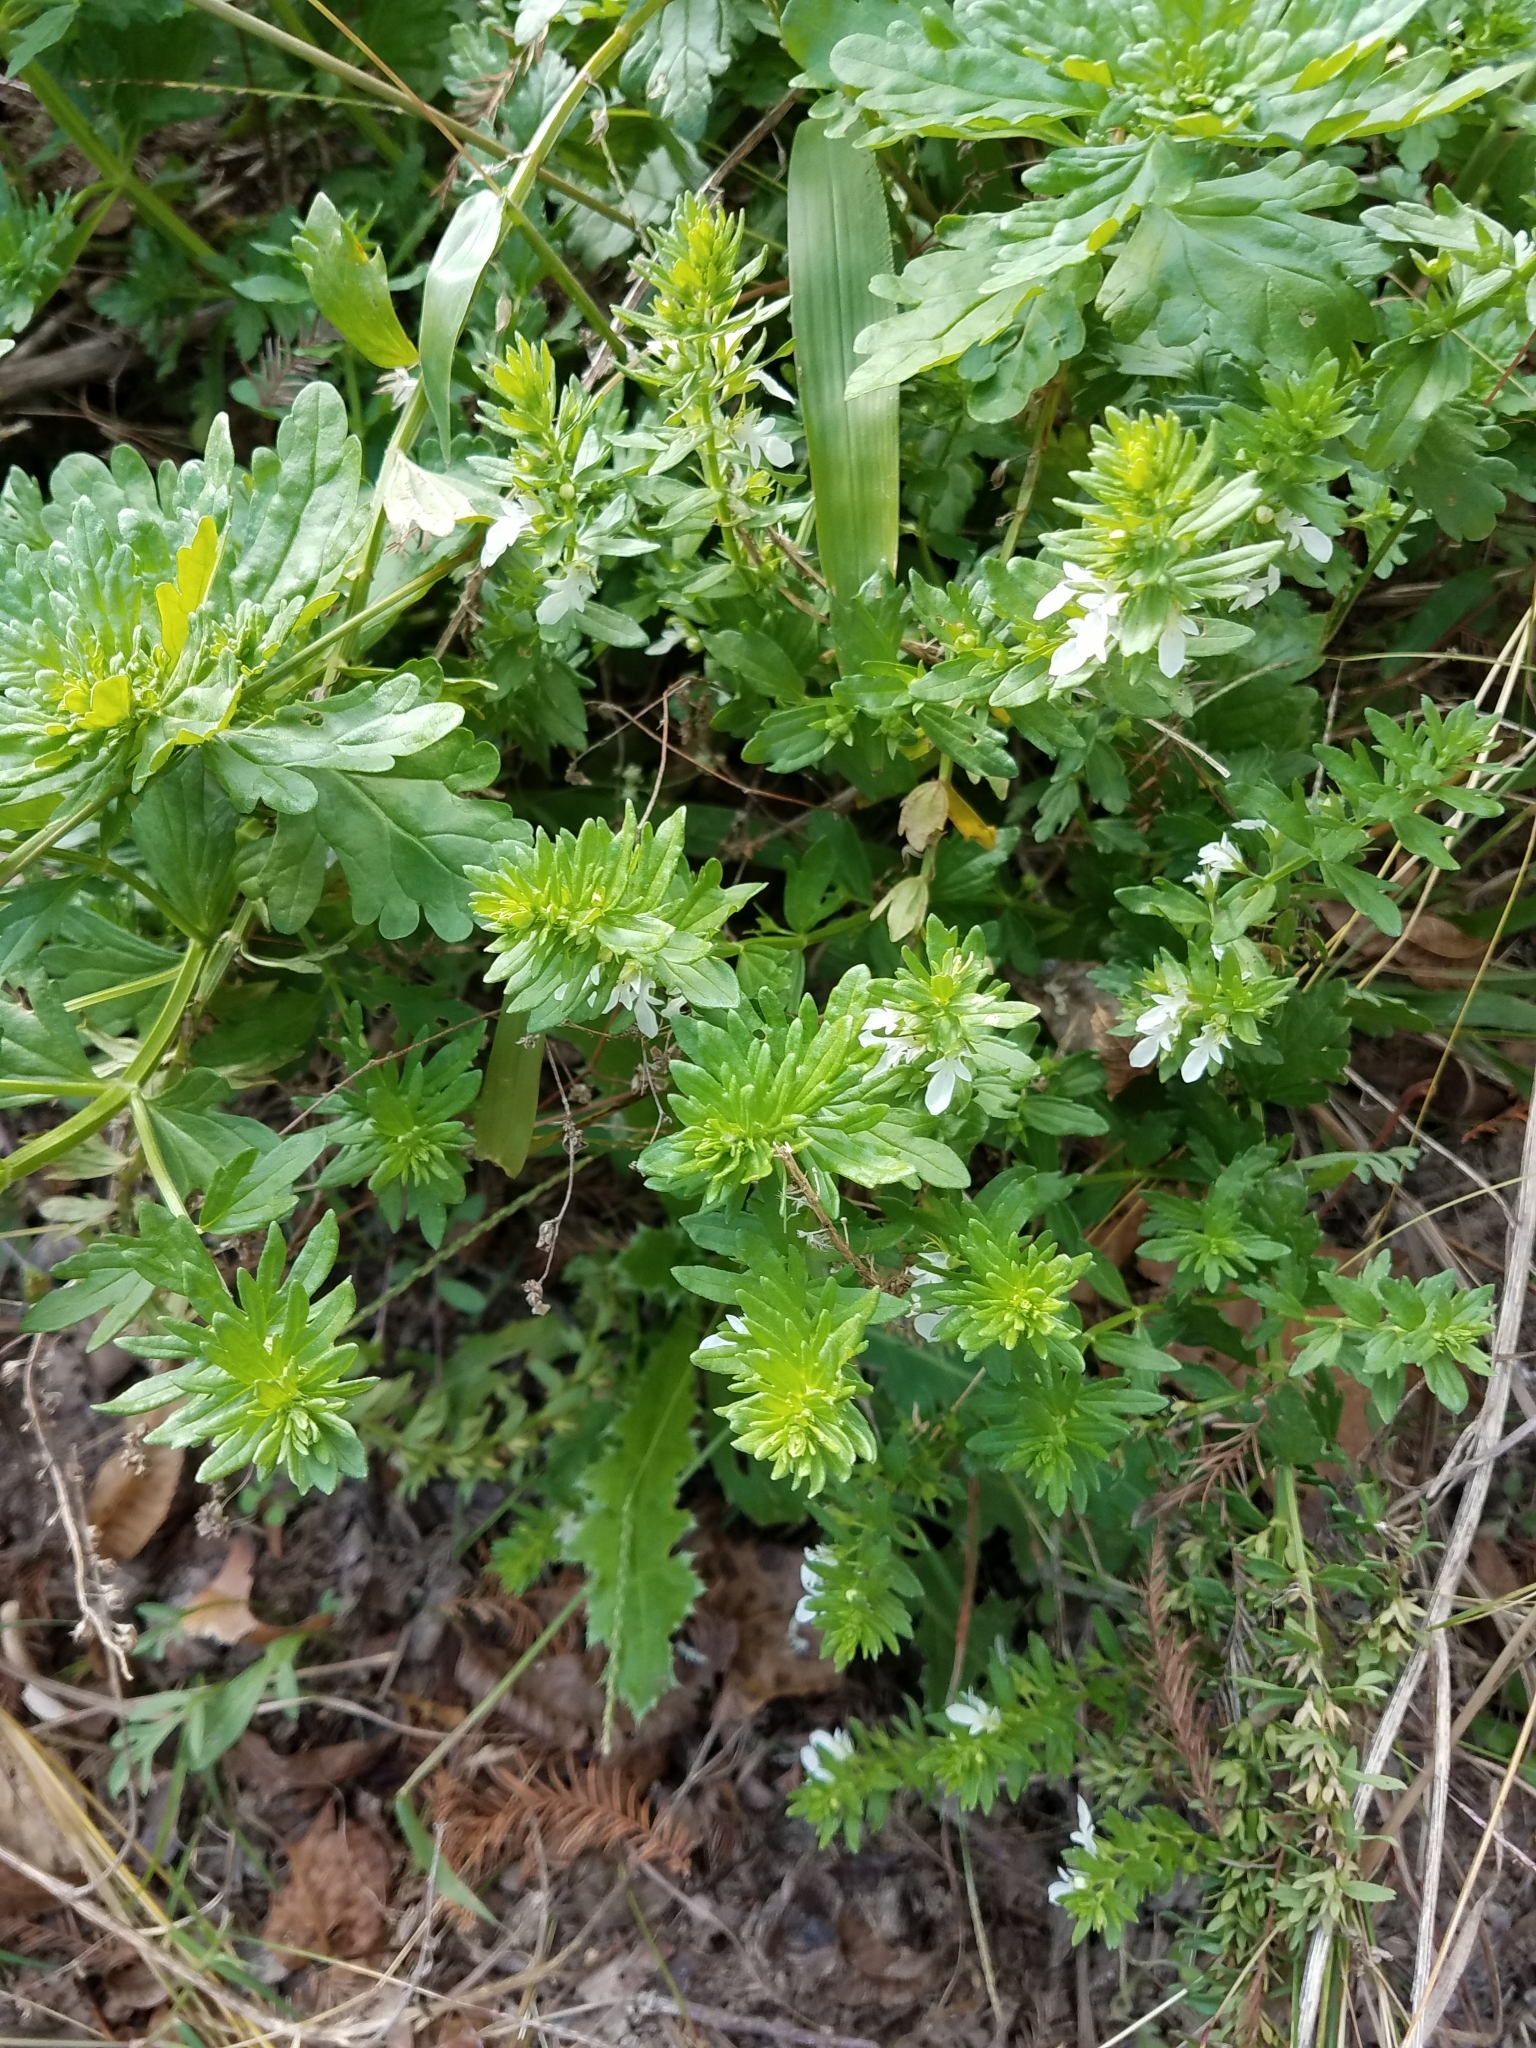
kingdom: Plantae
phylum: Tracheophyta
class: Magnoliopsida
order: Lamiales
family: Lamiaceae
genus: Teucrium
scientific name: Teucrium cubense
